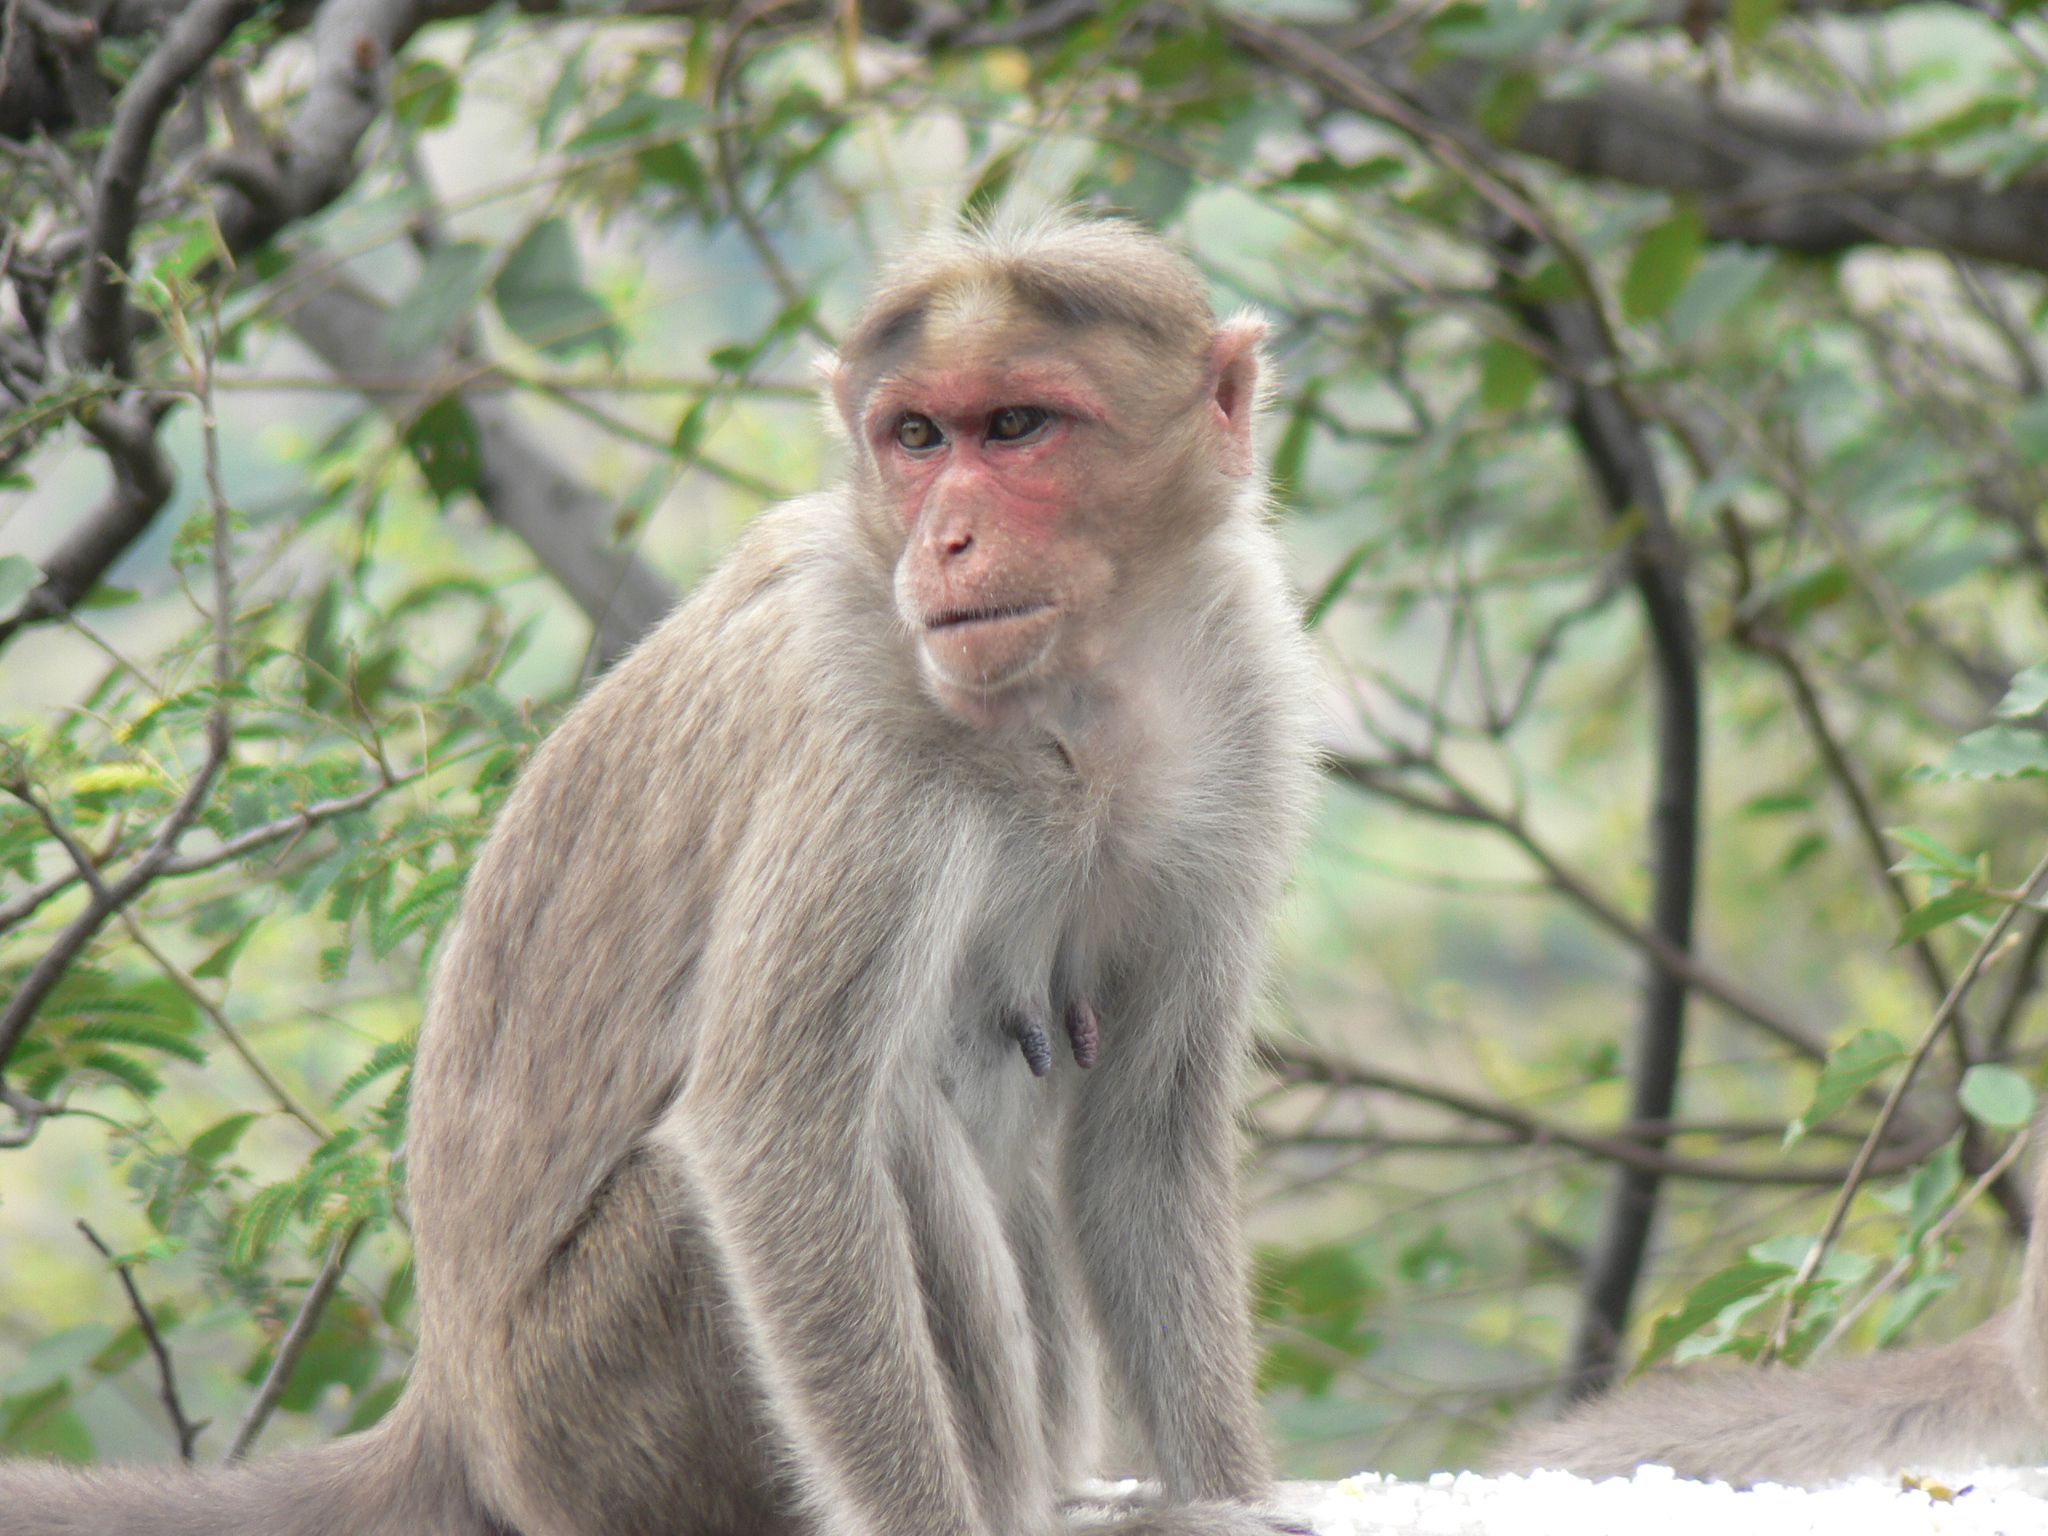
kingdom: Animalia
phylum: Chordata
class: Mammalia
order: Primates
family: Cercopithecidae
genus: Macaca
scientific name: Macaca radiata
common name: Bonnet macaque
